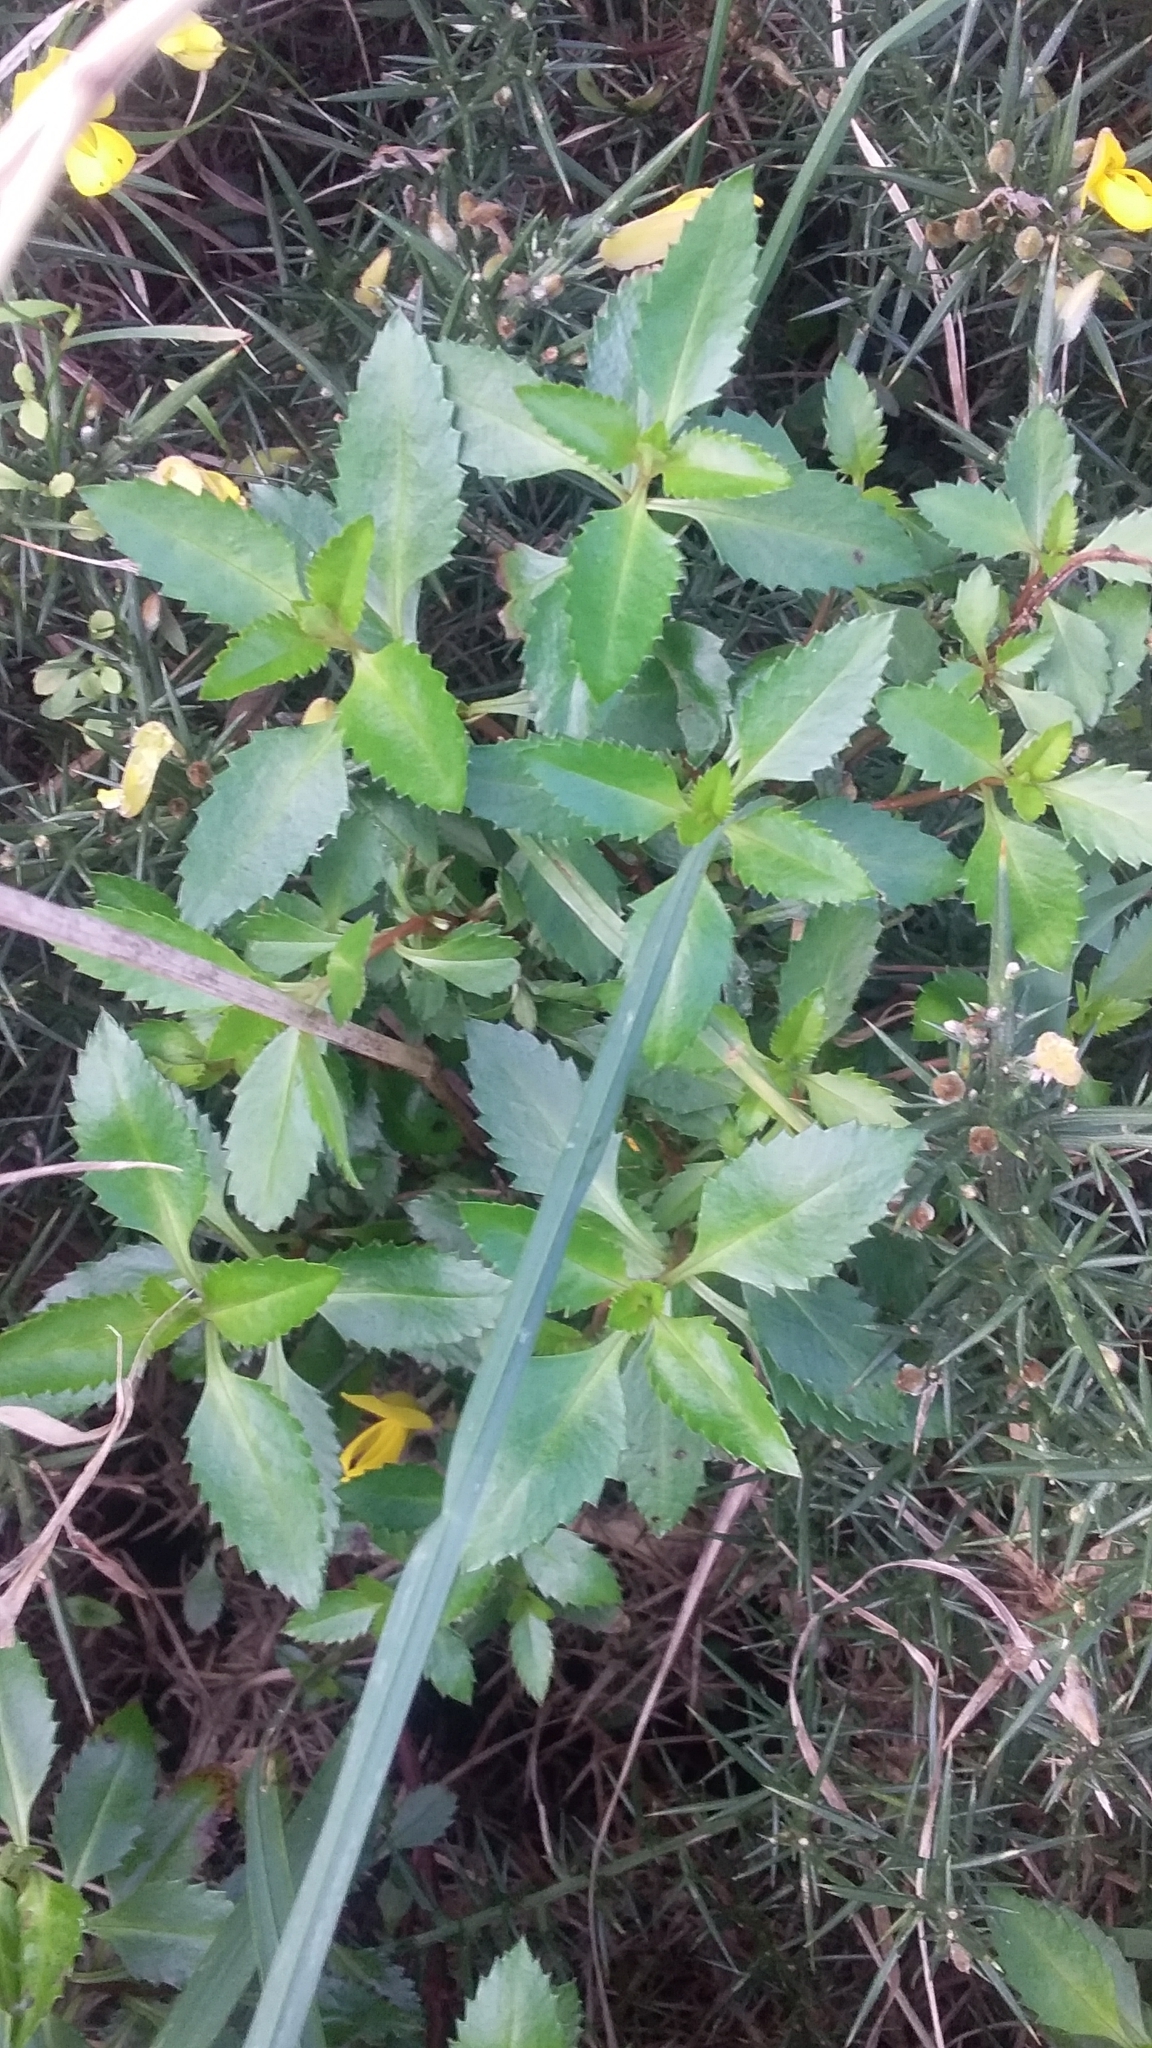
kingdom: Plantae
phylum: Tracheophyta
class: Magnoliopsida
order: Saxifragales
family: Haloragaceae
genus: Haloragis
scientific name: Haloragis erecta
